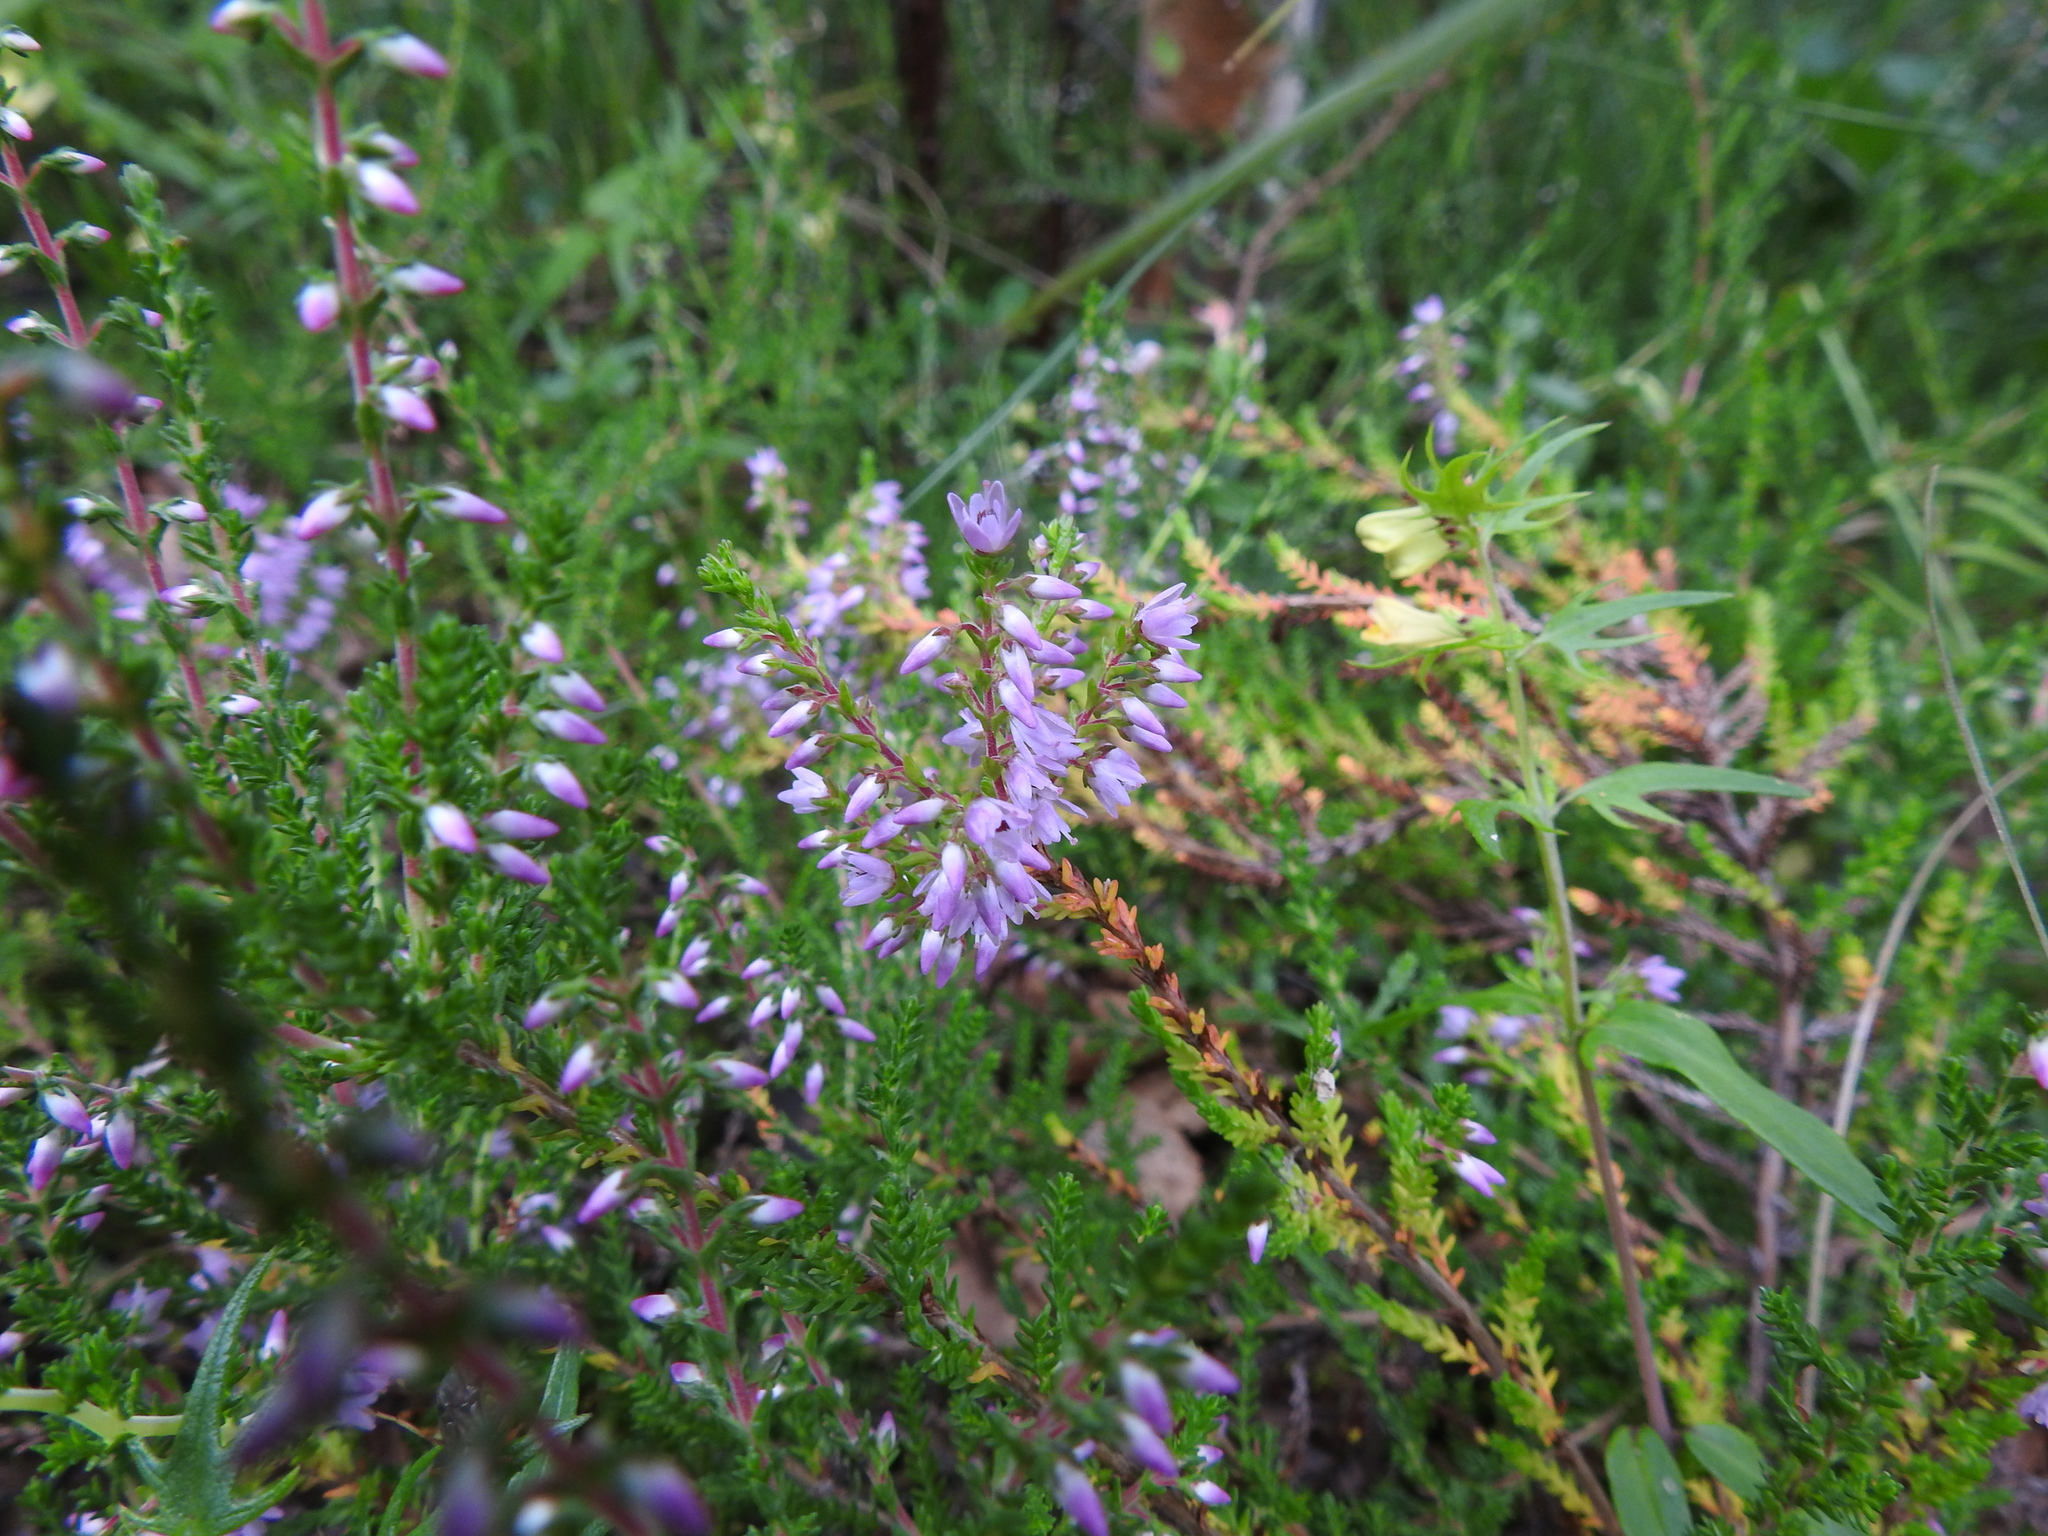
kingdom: Plantae
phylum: Tracheophyta
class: Magnoliopsida
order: Ericales
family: Ericaceae
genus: Calluna
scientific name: Calluna vulgaris
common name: Heather
